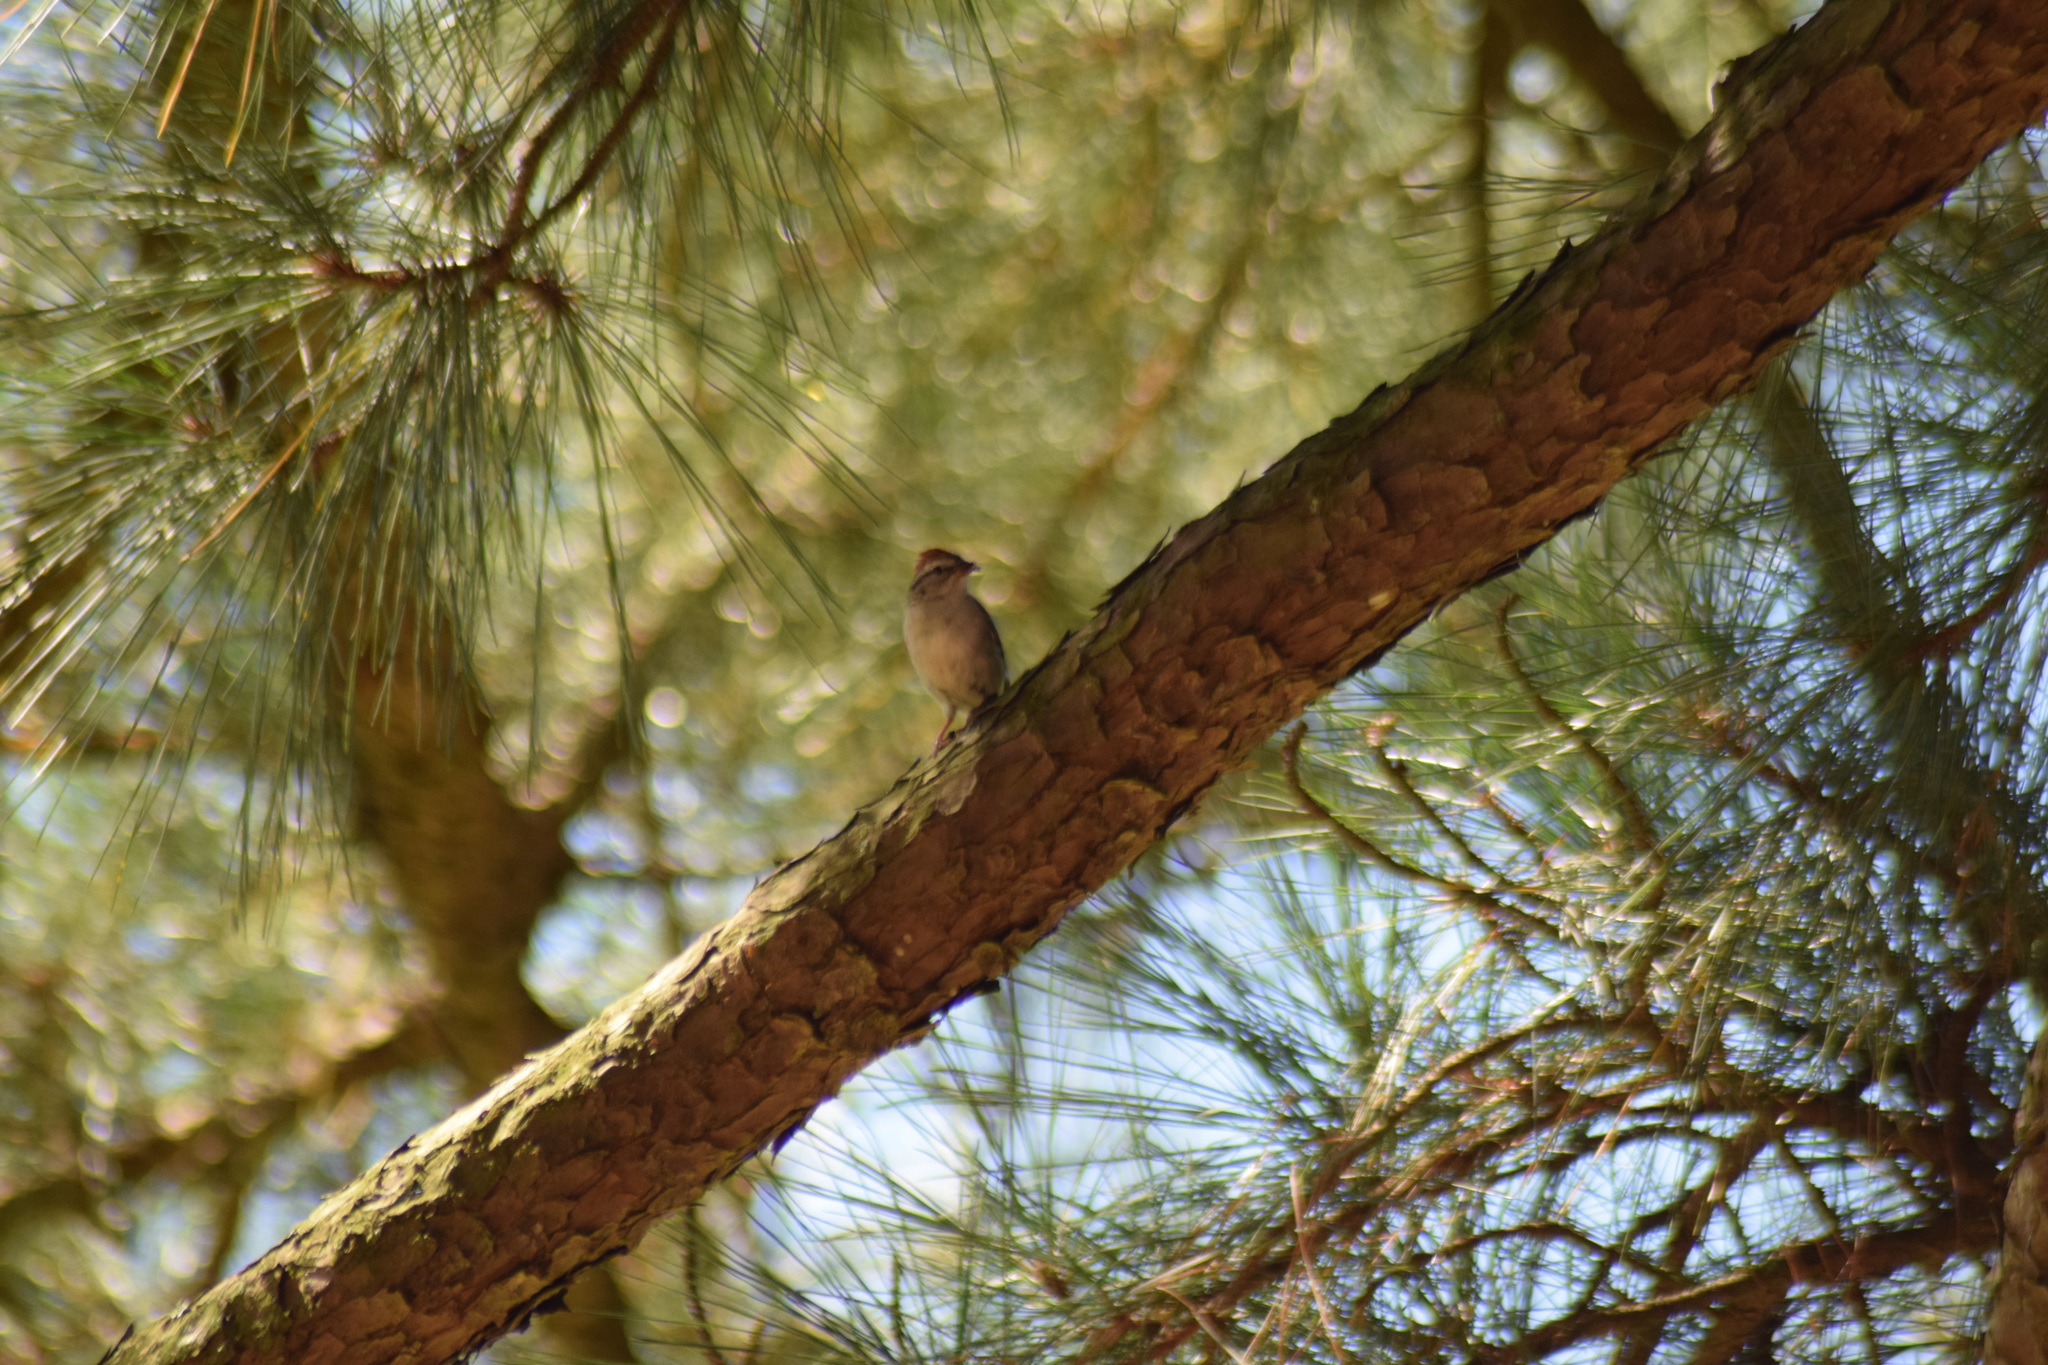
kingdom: Animalia
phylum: Chordata
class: Aves
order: Passeriformes
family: Passerellidae
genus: Spizella
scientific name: Spizella passerina
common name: Chipping sparrow
